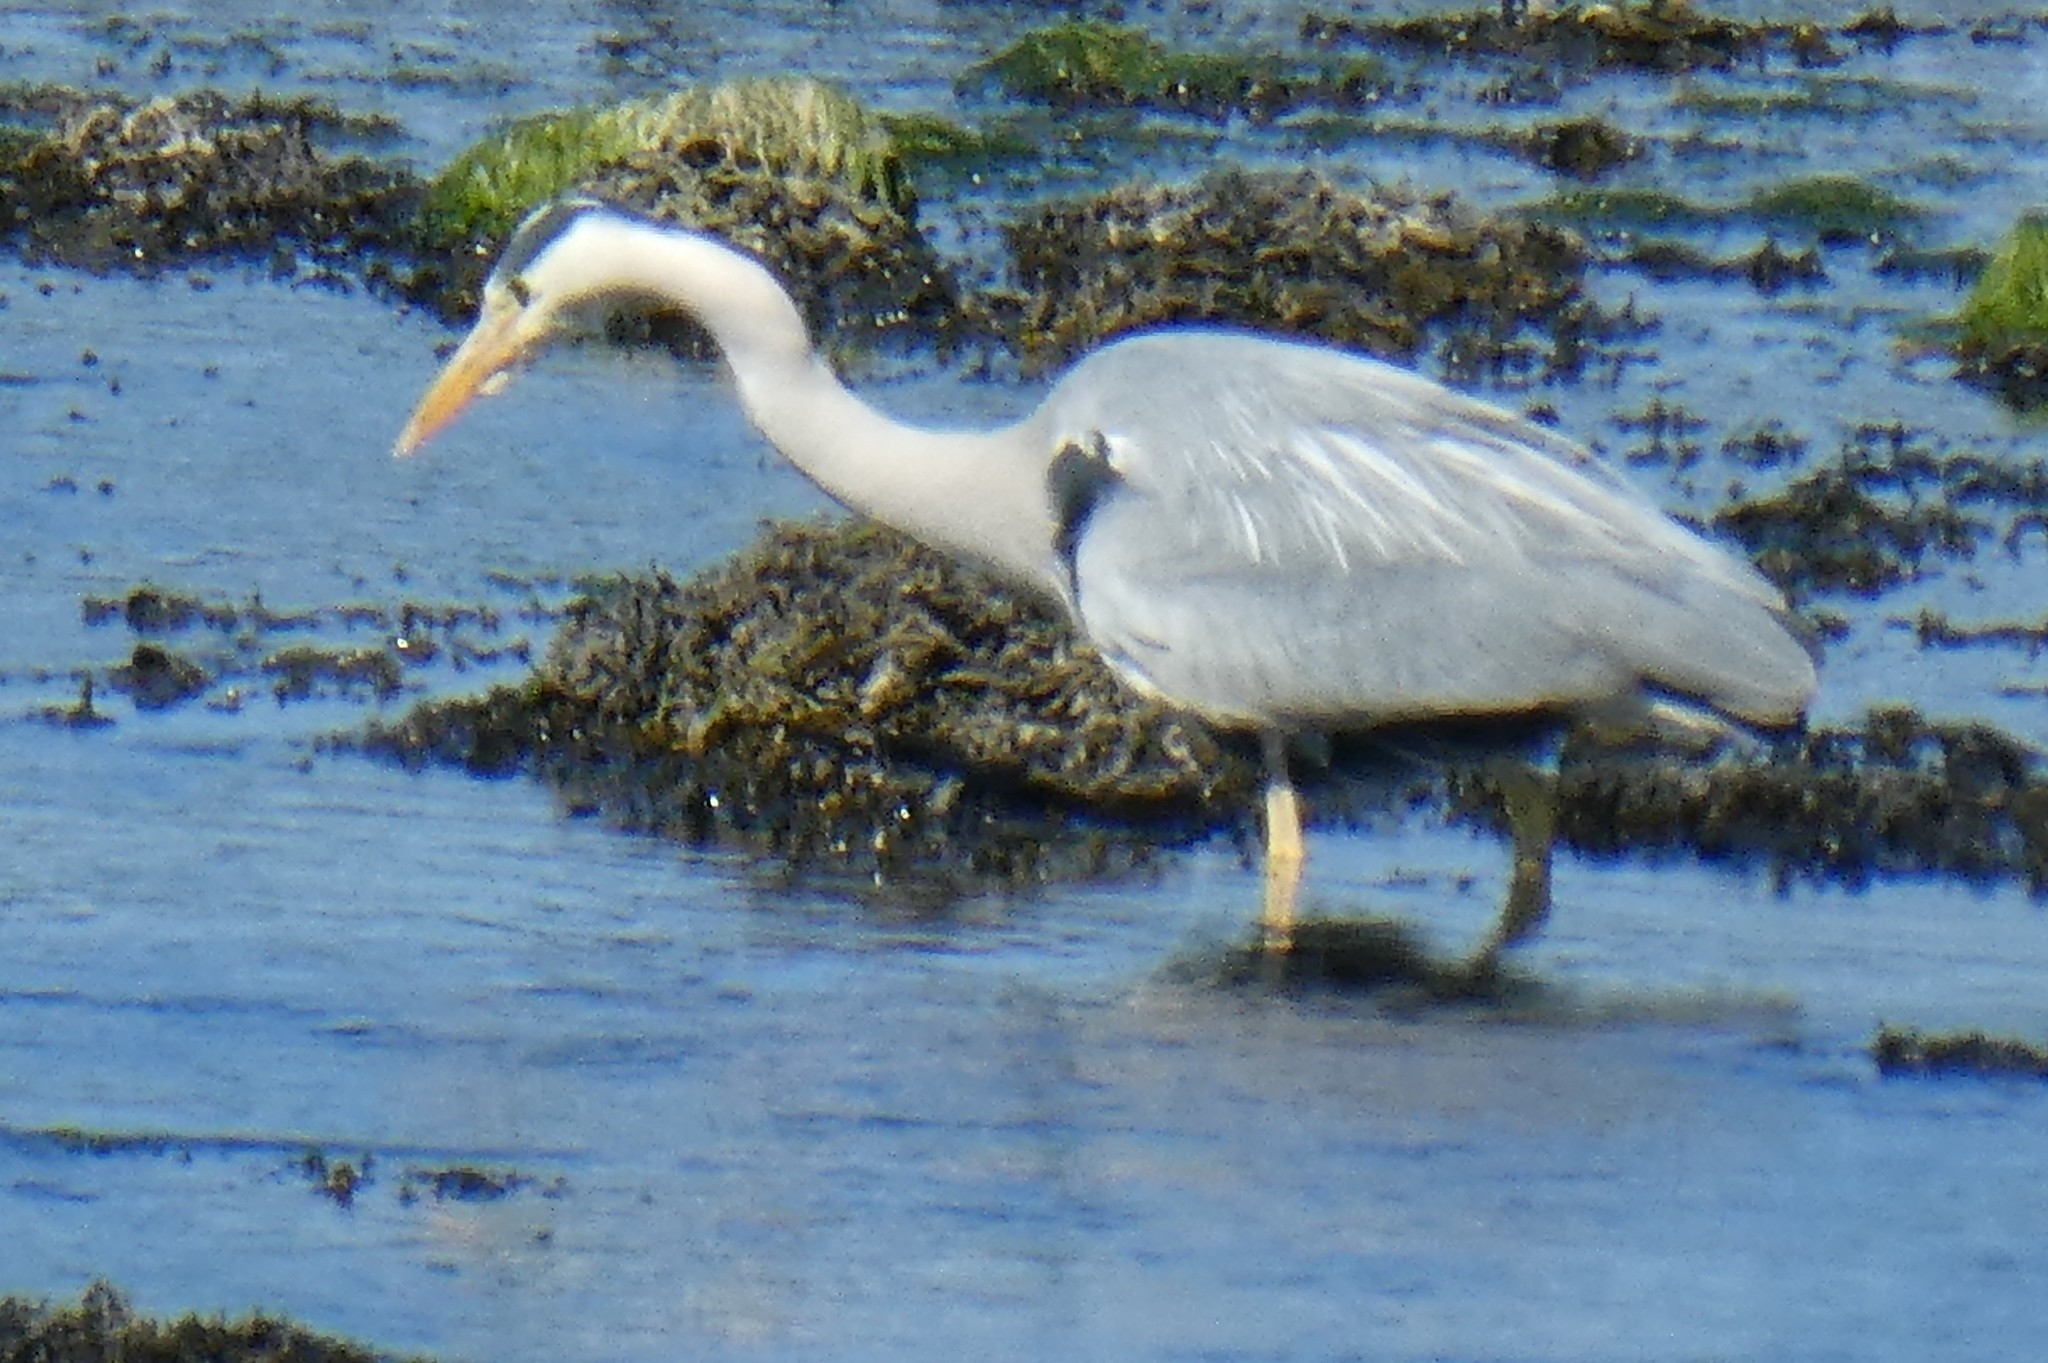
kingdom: Animalia
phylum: Chordata
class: Aves
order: Pelecaniformes
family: Ardeidae
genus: Ardea
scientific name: Ardea cinerea
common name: Grey heron
